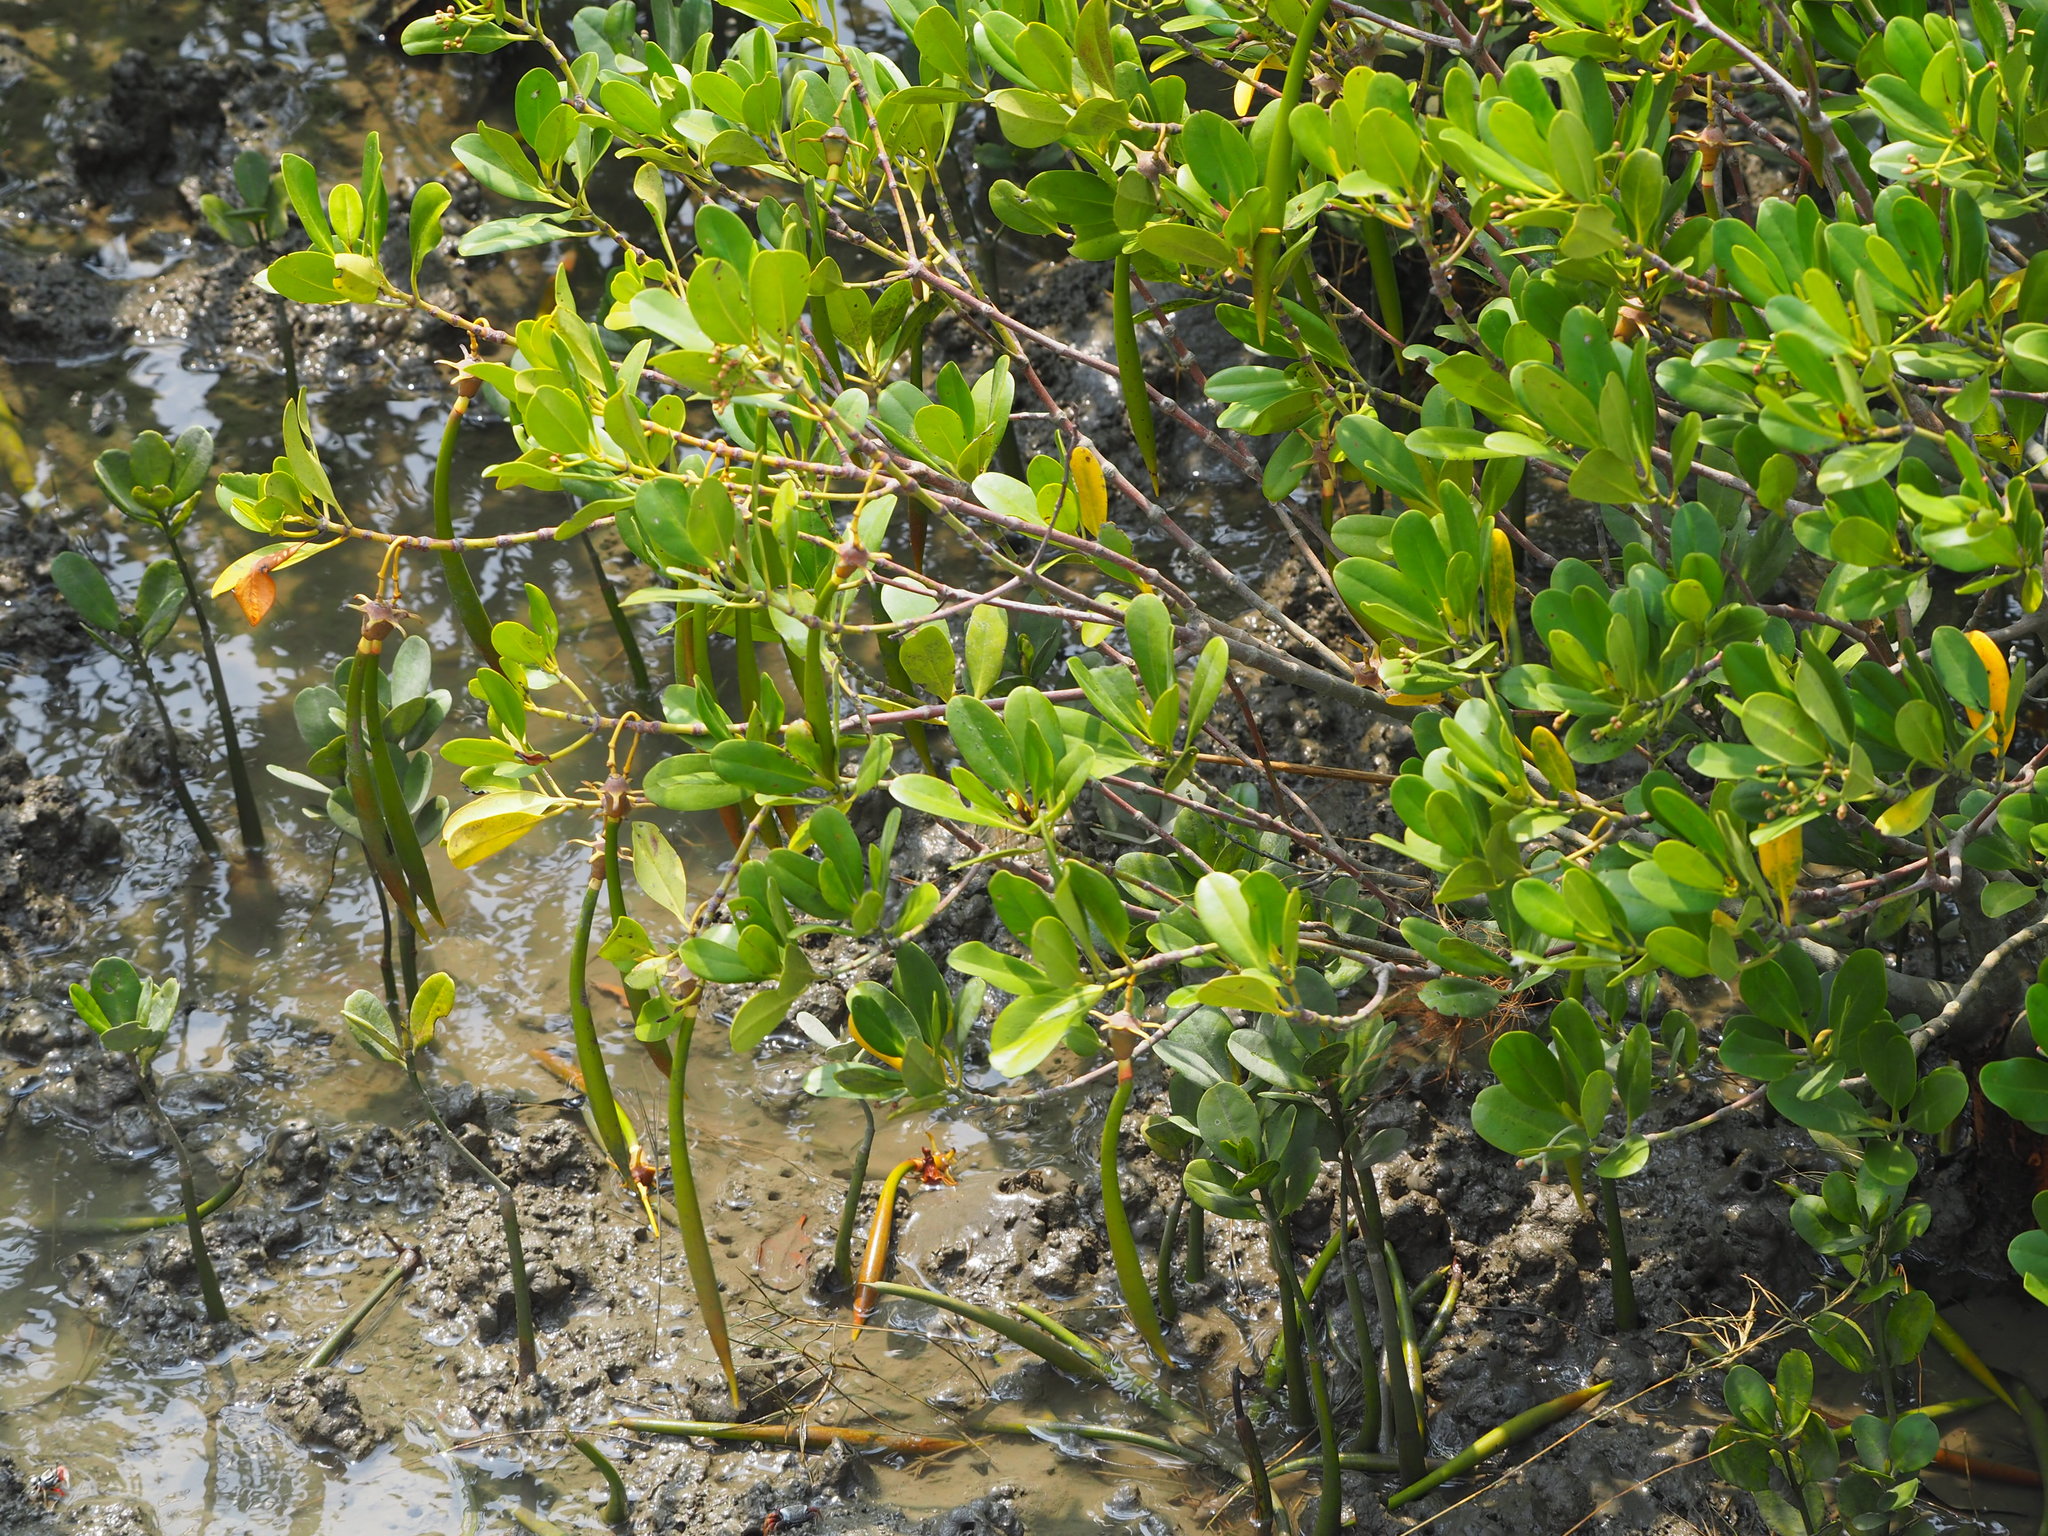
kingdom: Plantae
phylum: Tracheophyta
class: Magnoliopsida
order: Malpighiales
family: Rhizophoraceae
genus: Kandelia
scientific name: Kandelia obovata
